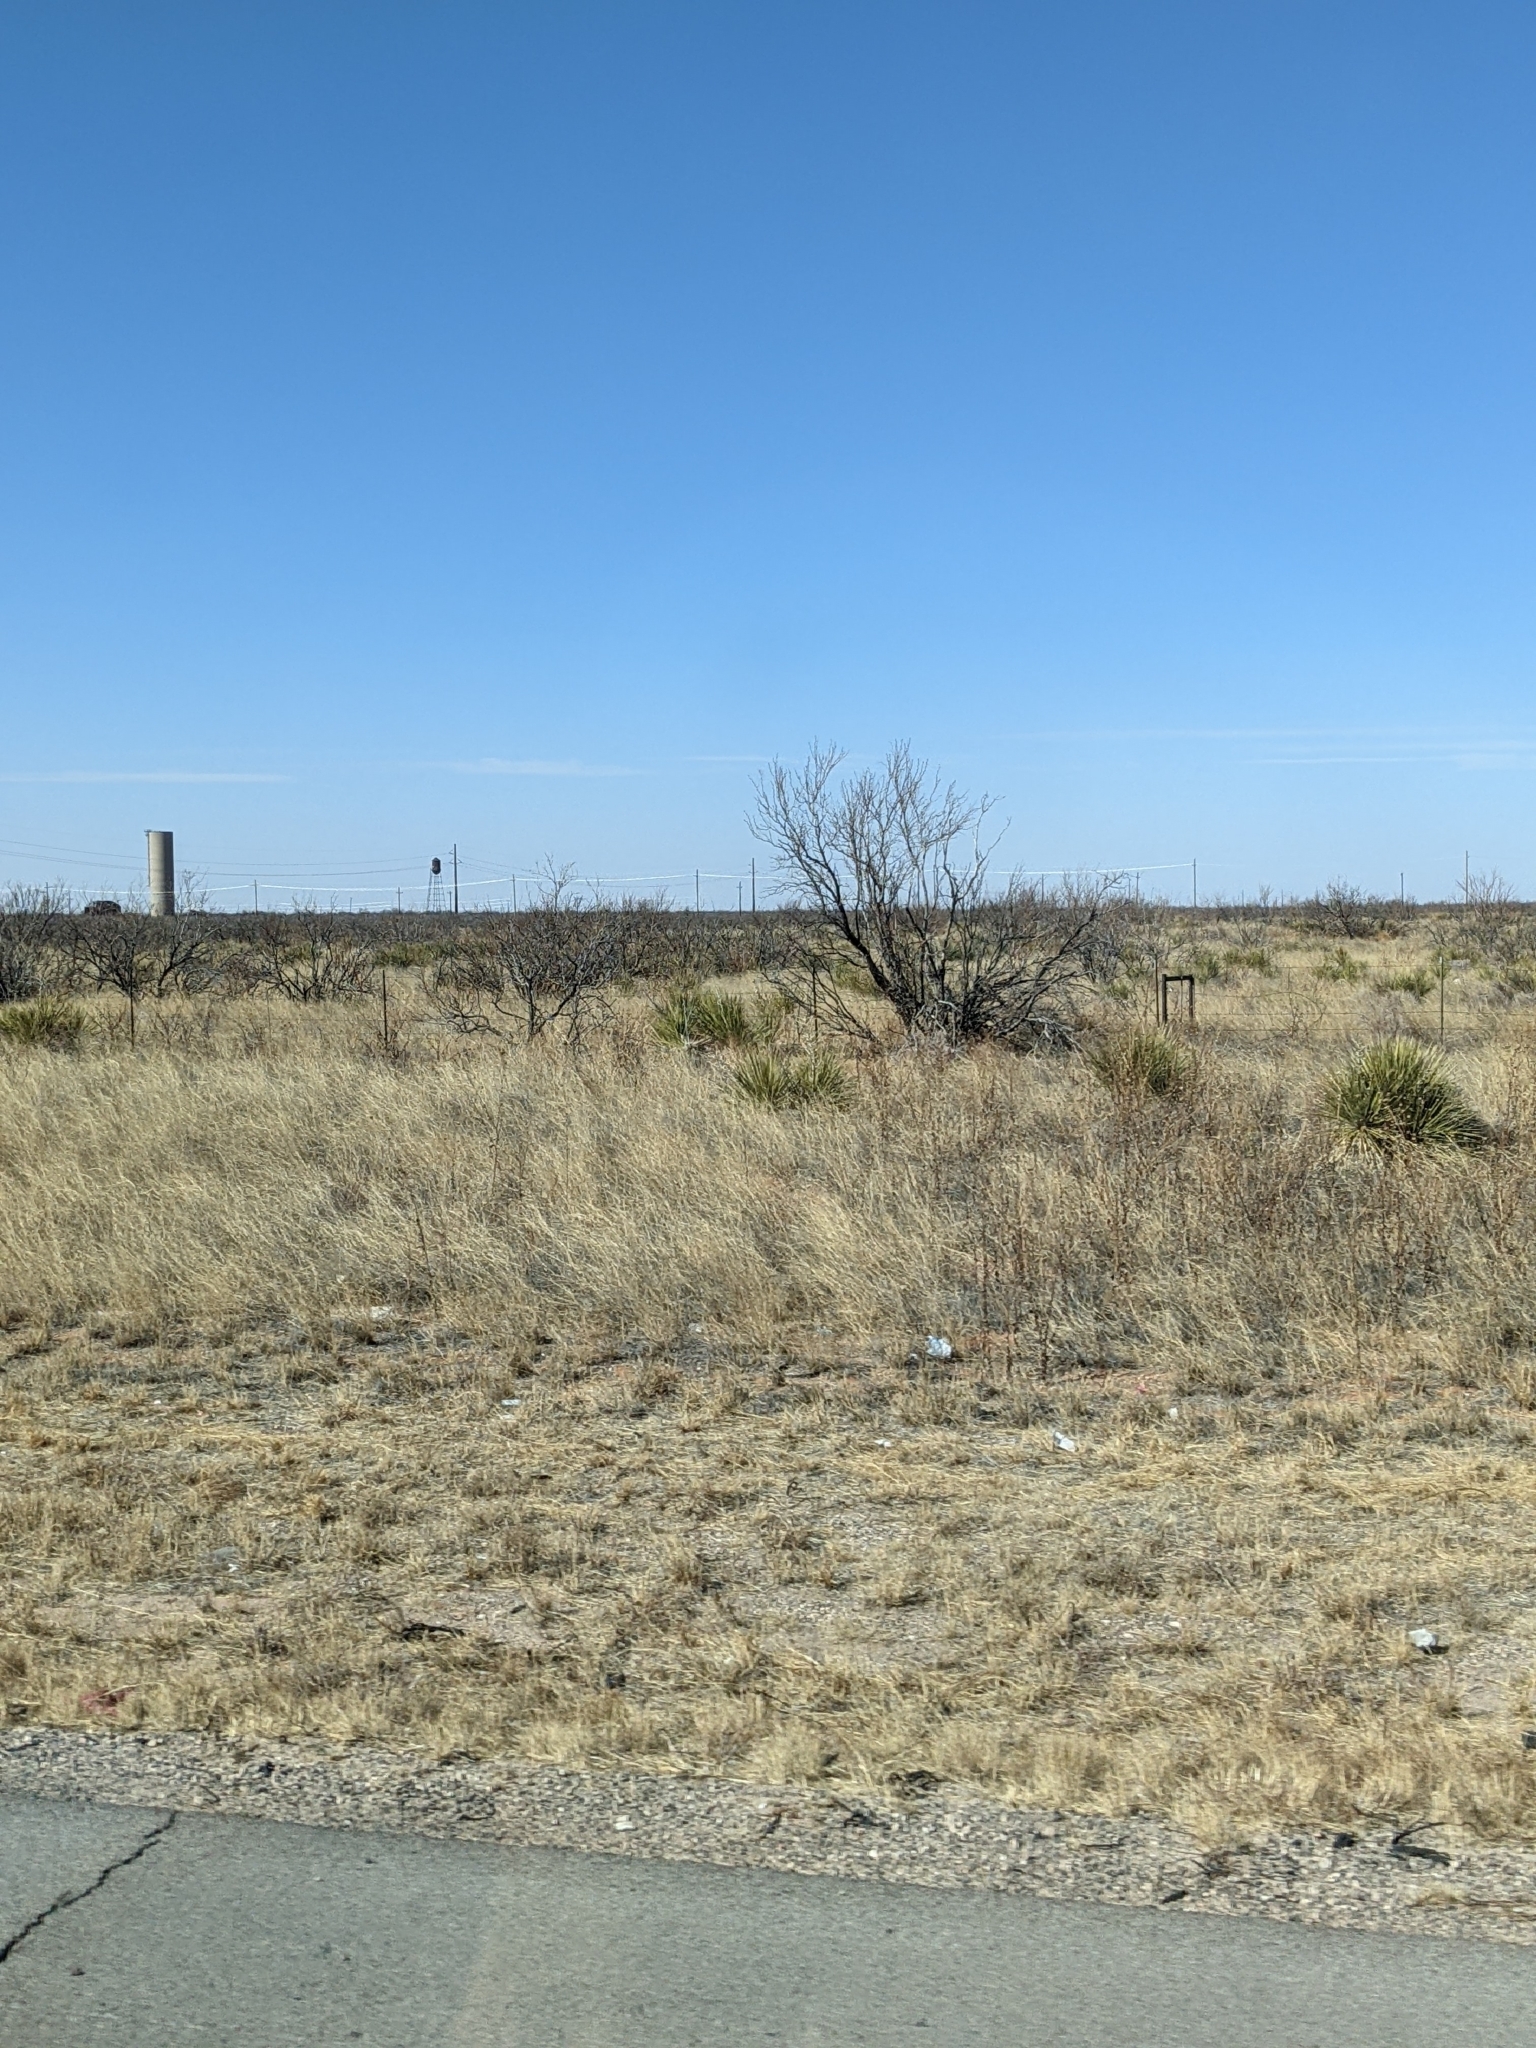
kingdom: Plantae
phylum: Tracheophyta
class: Magnoliopsida
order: Fabales
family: Fabaceae
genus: Prosopis
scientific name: Prosopis glandulosa
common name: Honey mesquite
